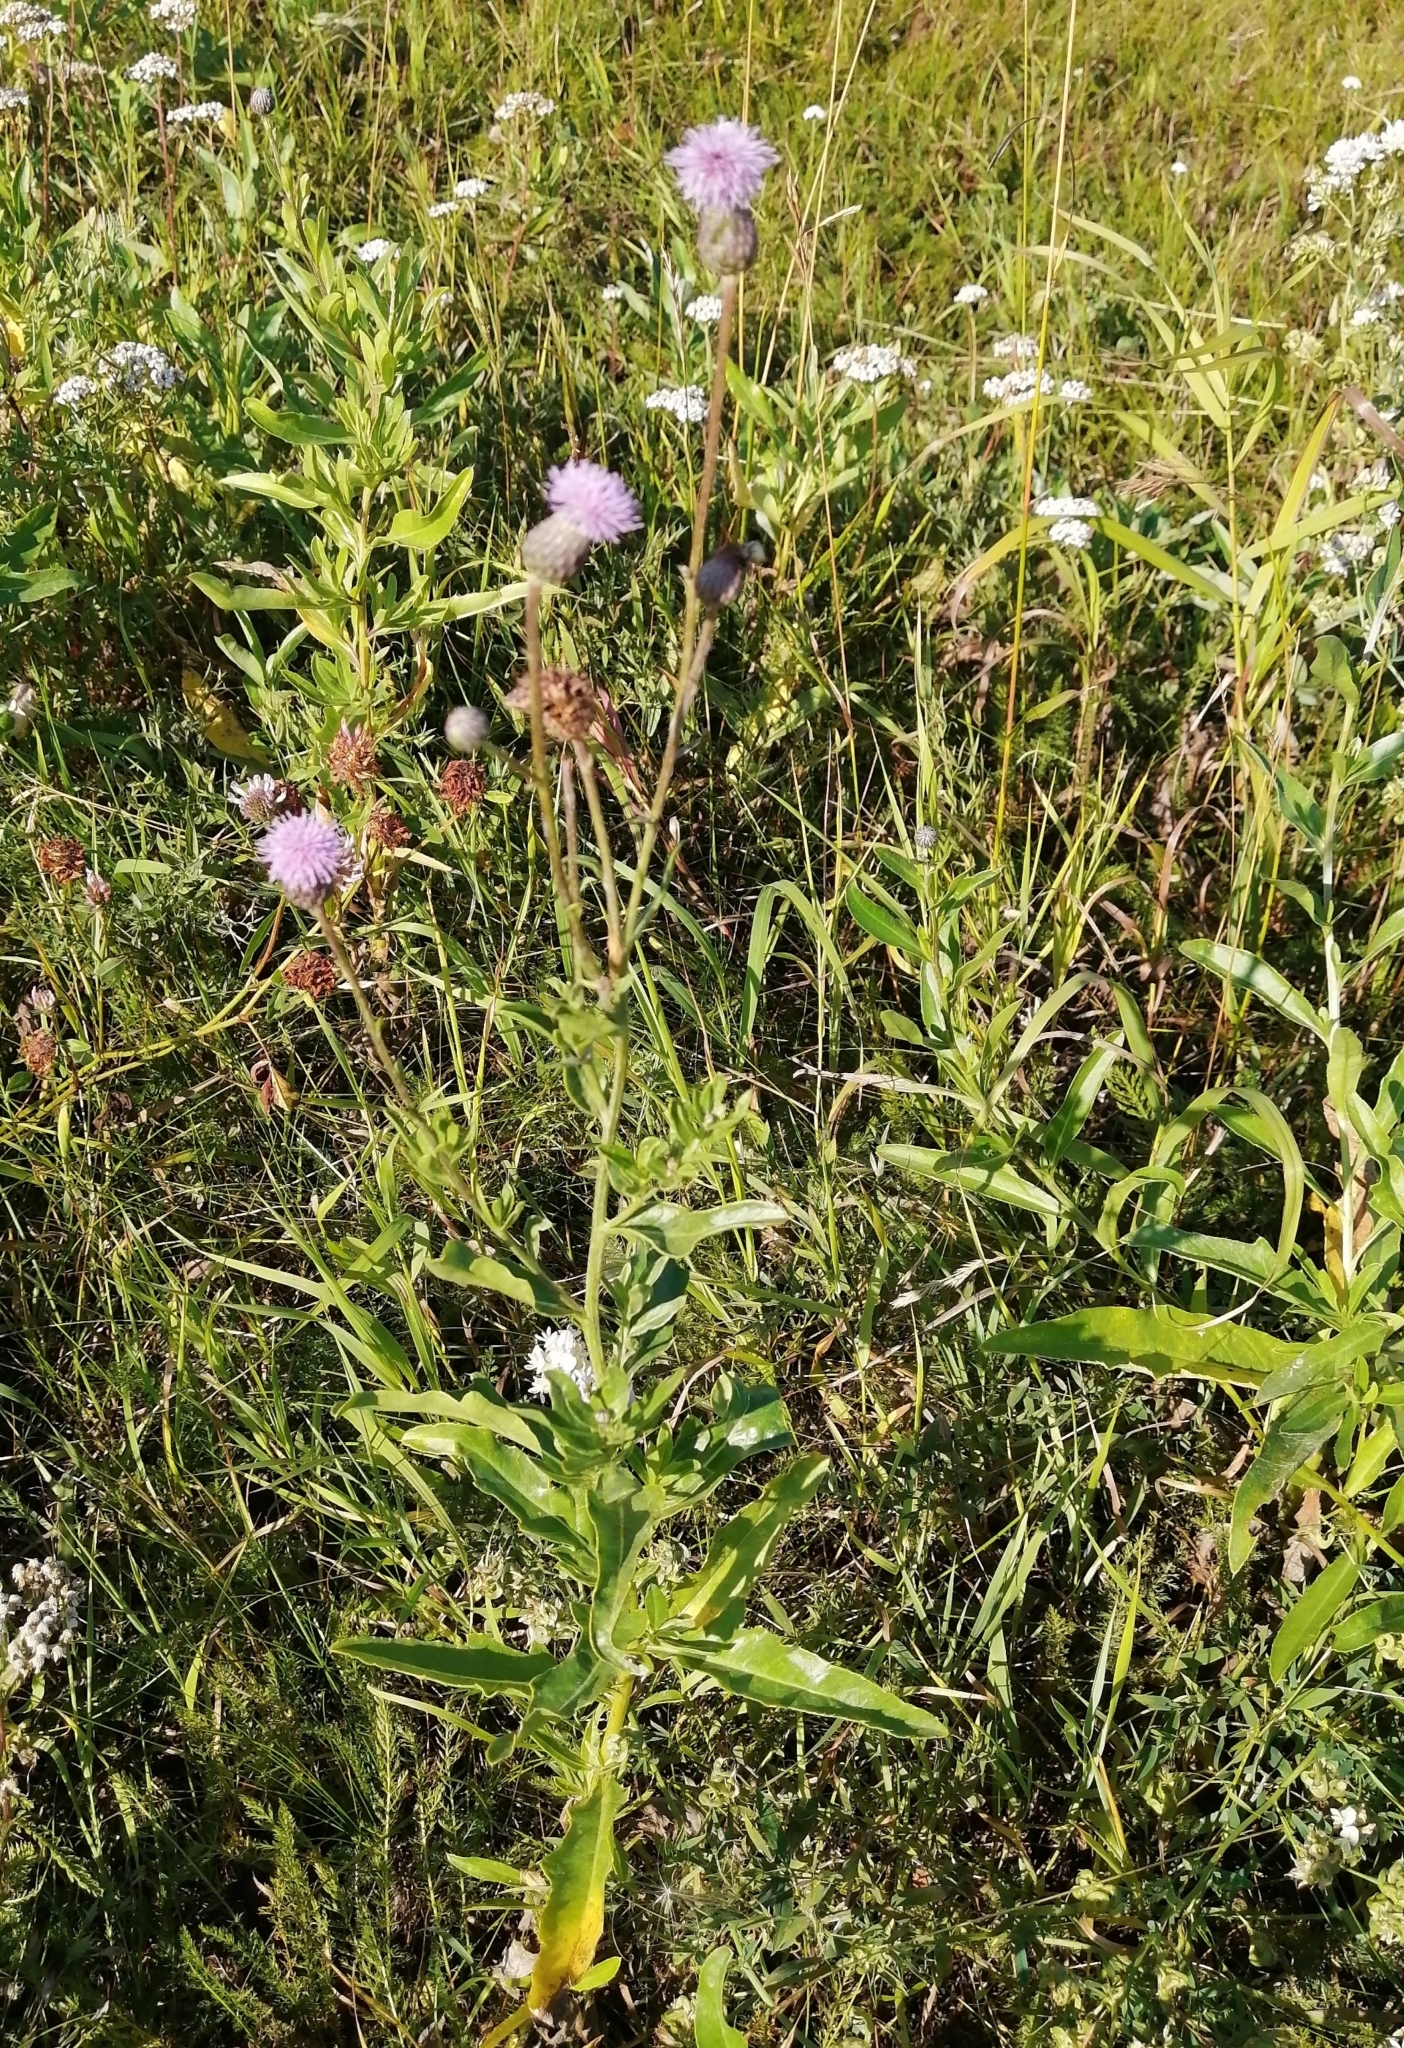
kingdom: Plantae
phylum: Tracheophyta
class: Magnoliopsida
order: Asterales
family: Asteraceae
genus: Cirsium
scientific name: Cirsium arvense
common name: Creeping thistle
